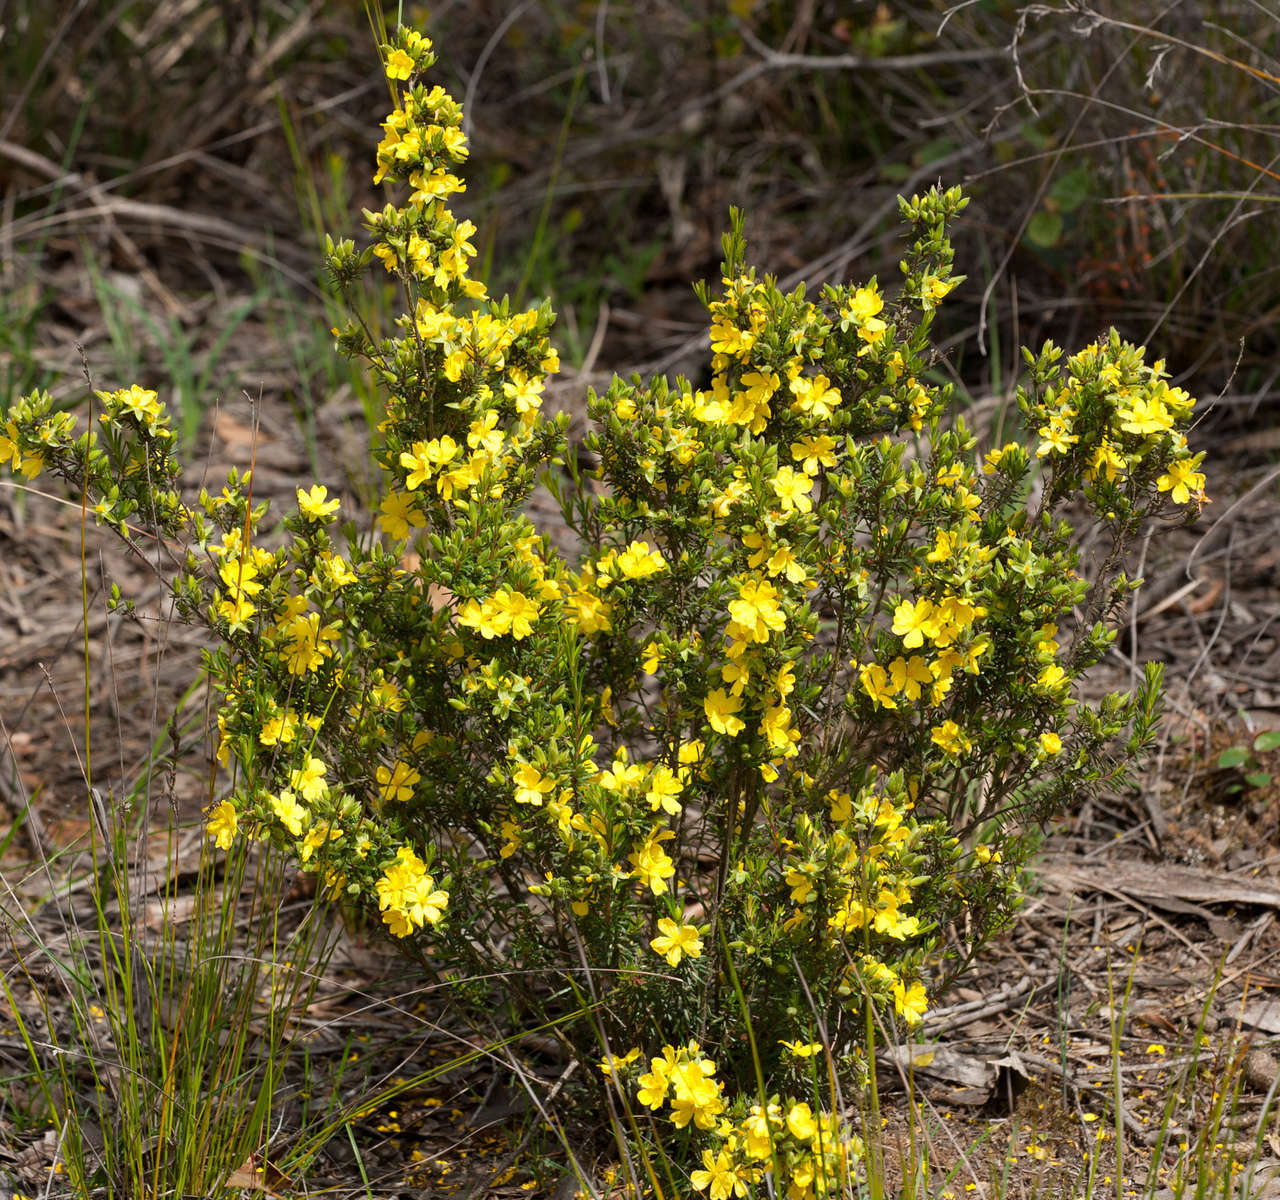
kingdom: Plantae
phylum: Tracheophyta
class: Magnoliopsida
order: Dilleniales
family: Dilleniaceae
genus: Hibbertia
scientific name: Hibbertia riparia
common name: Erect guinea-flower
